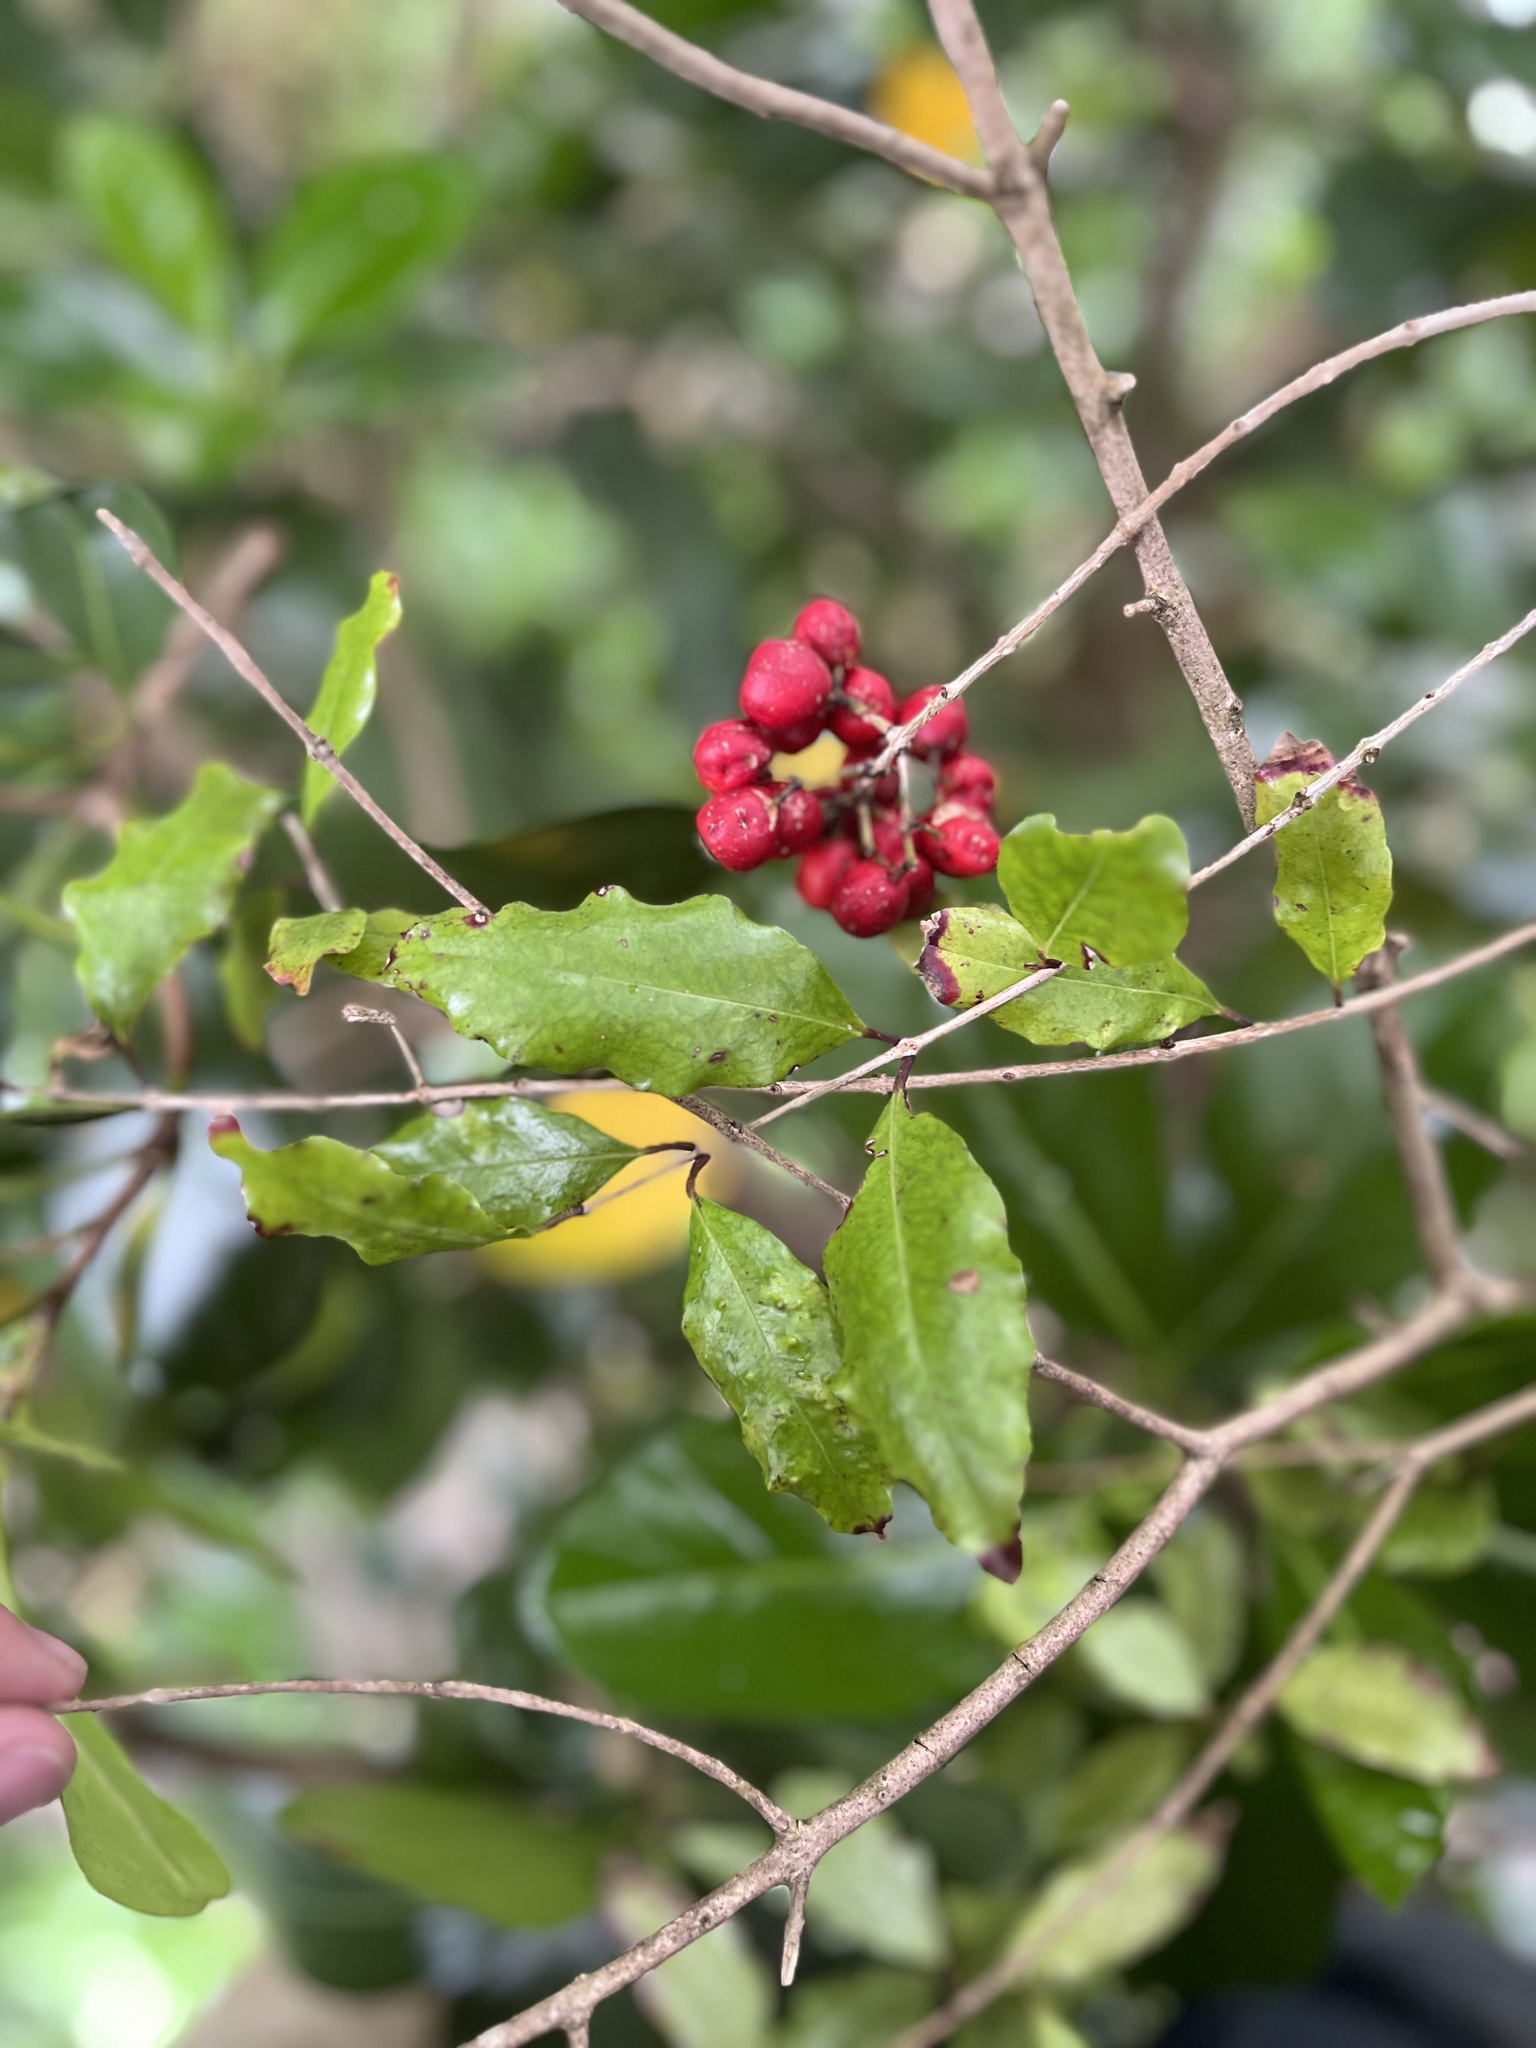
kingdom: Plantae
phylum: Tracheophyta
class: Magnoliopsida
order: Myrtales
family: Myrtaceae
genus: Syzygium
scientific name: Syzygium maire
